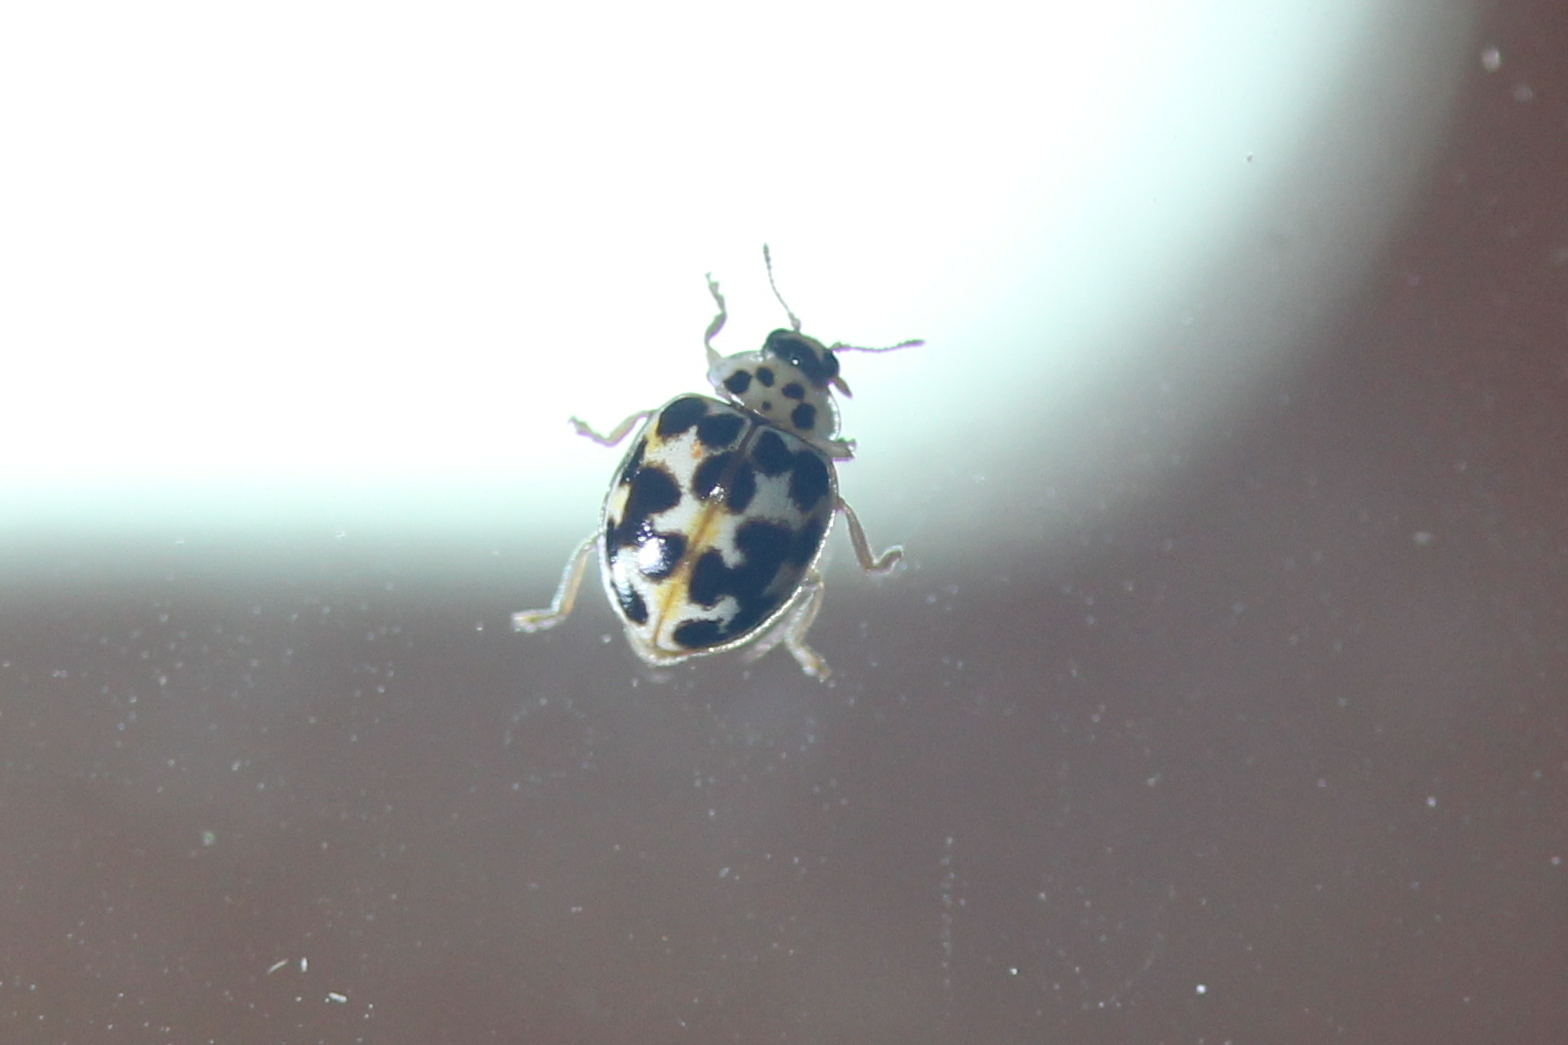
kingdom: Animalia
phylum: Arthropoda
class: Insecta
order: Coleoptera
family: Coccinellidae
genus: Psyllobora
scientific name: Psyllobora vigintimaculata
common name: Ladybird beetle
